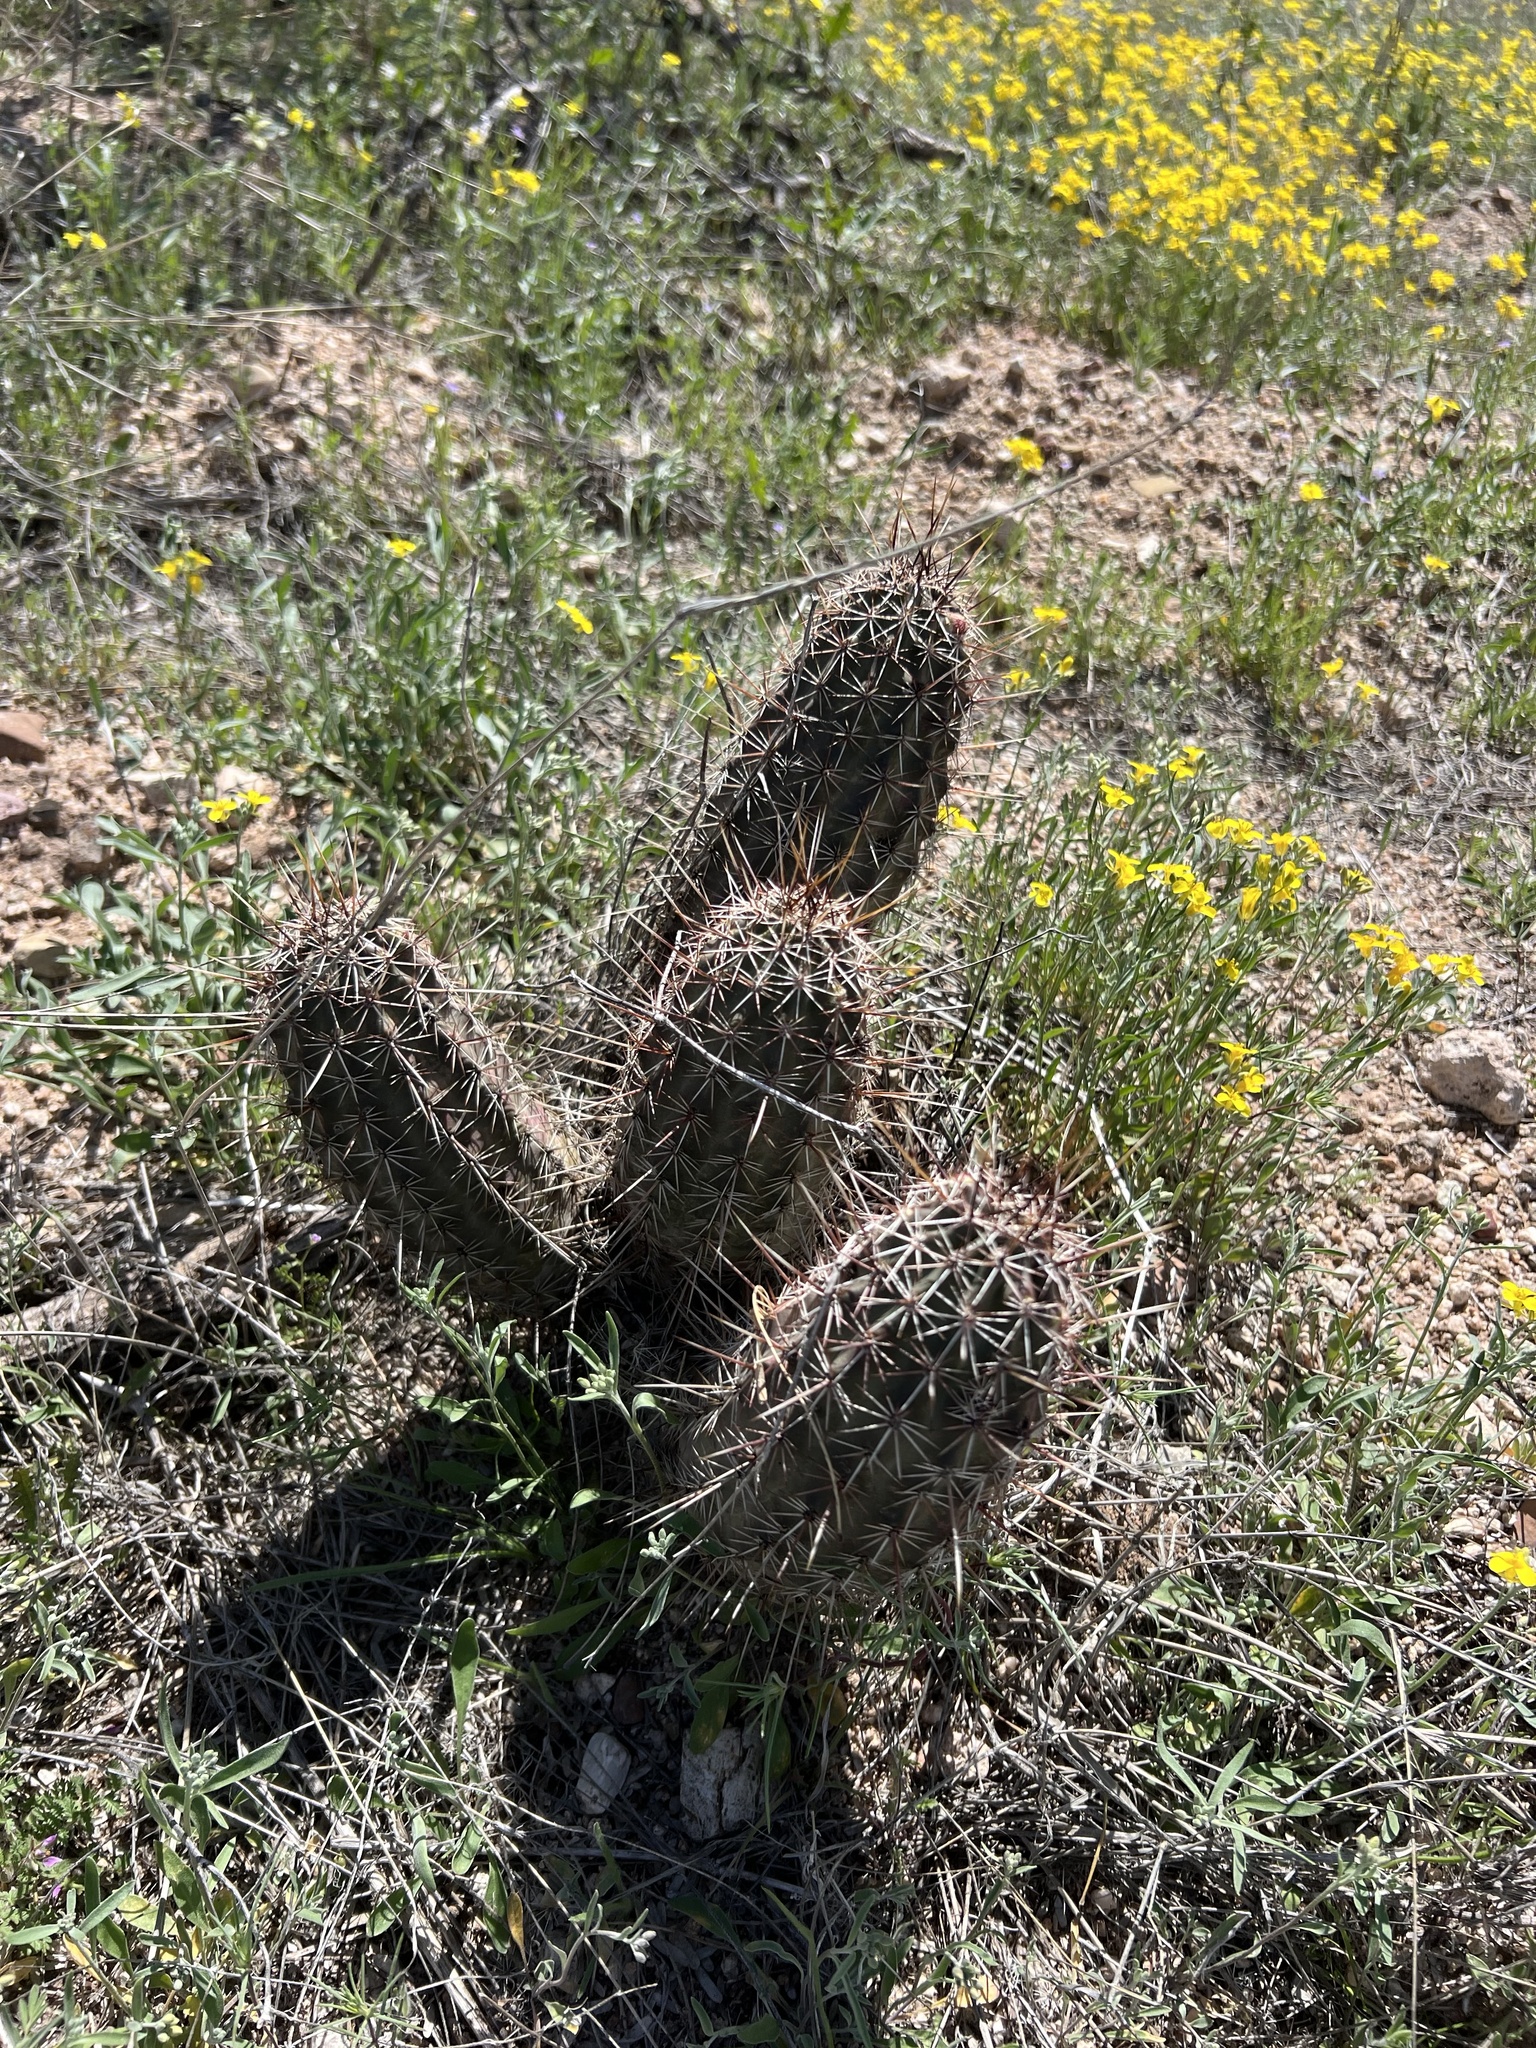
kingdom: Plantae
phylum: Tracheophyta
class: Magnoliopsida
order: Caryophyllales
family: Cactaceae
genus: Echinocereus
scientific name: Echinocereus fasciculatus
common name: Bundle hedgehog
